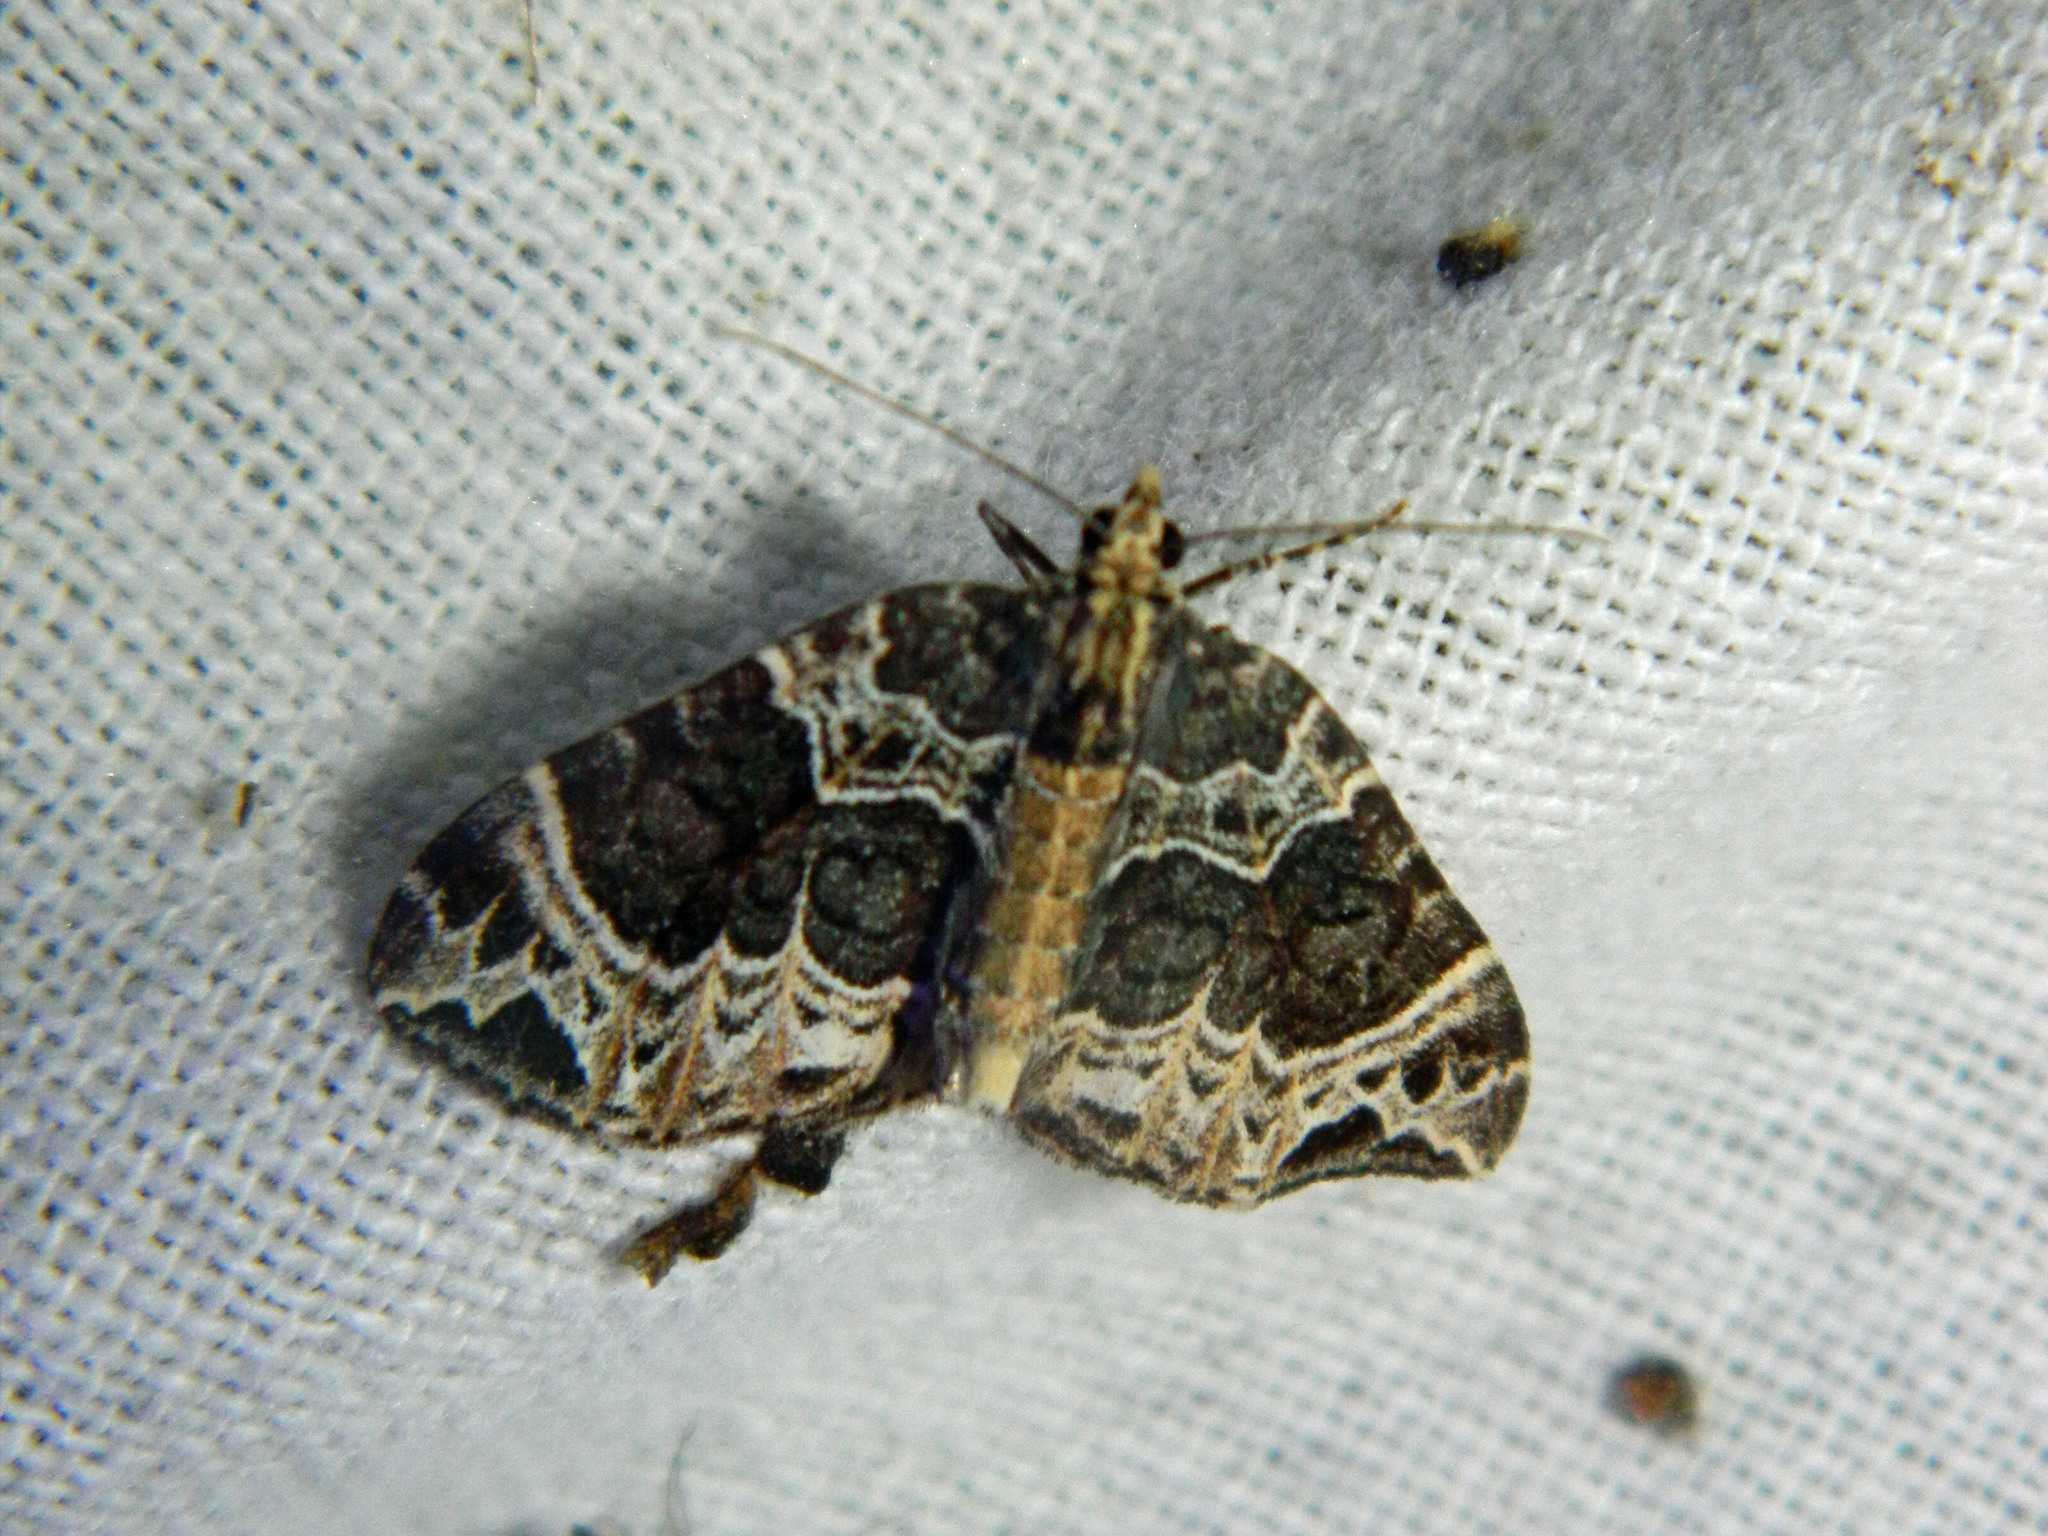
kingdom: Animalia
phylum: Arthropoda
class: Insecta
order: Lepidoptera
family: Geometridae
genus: Ecliptopera
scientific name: Ecliptopera silaceata
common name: Small phoenix
